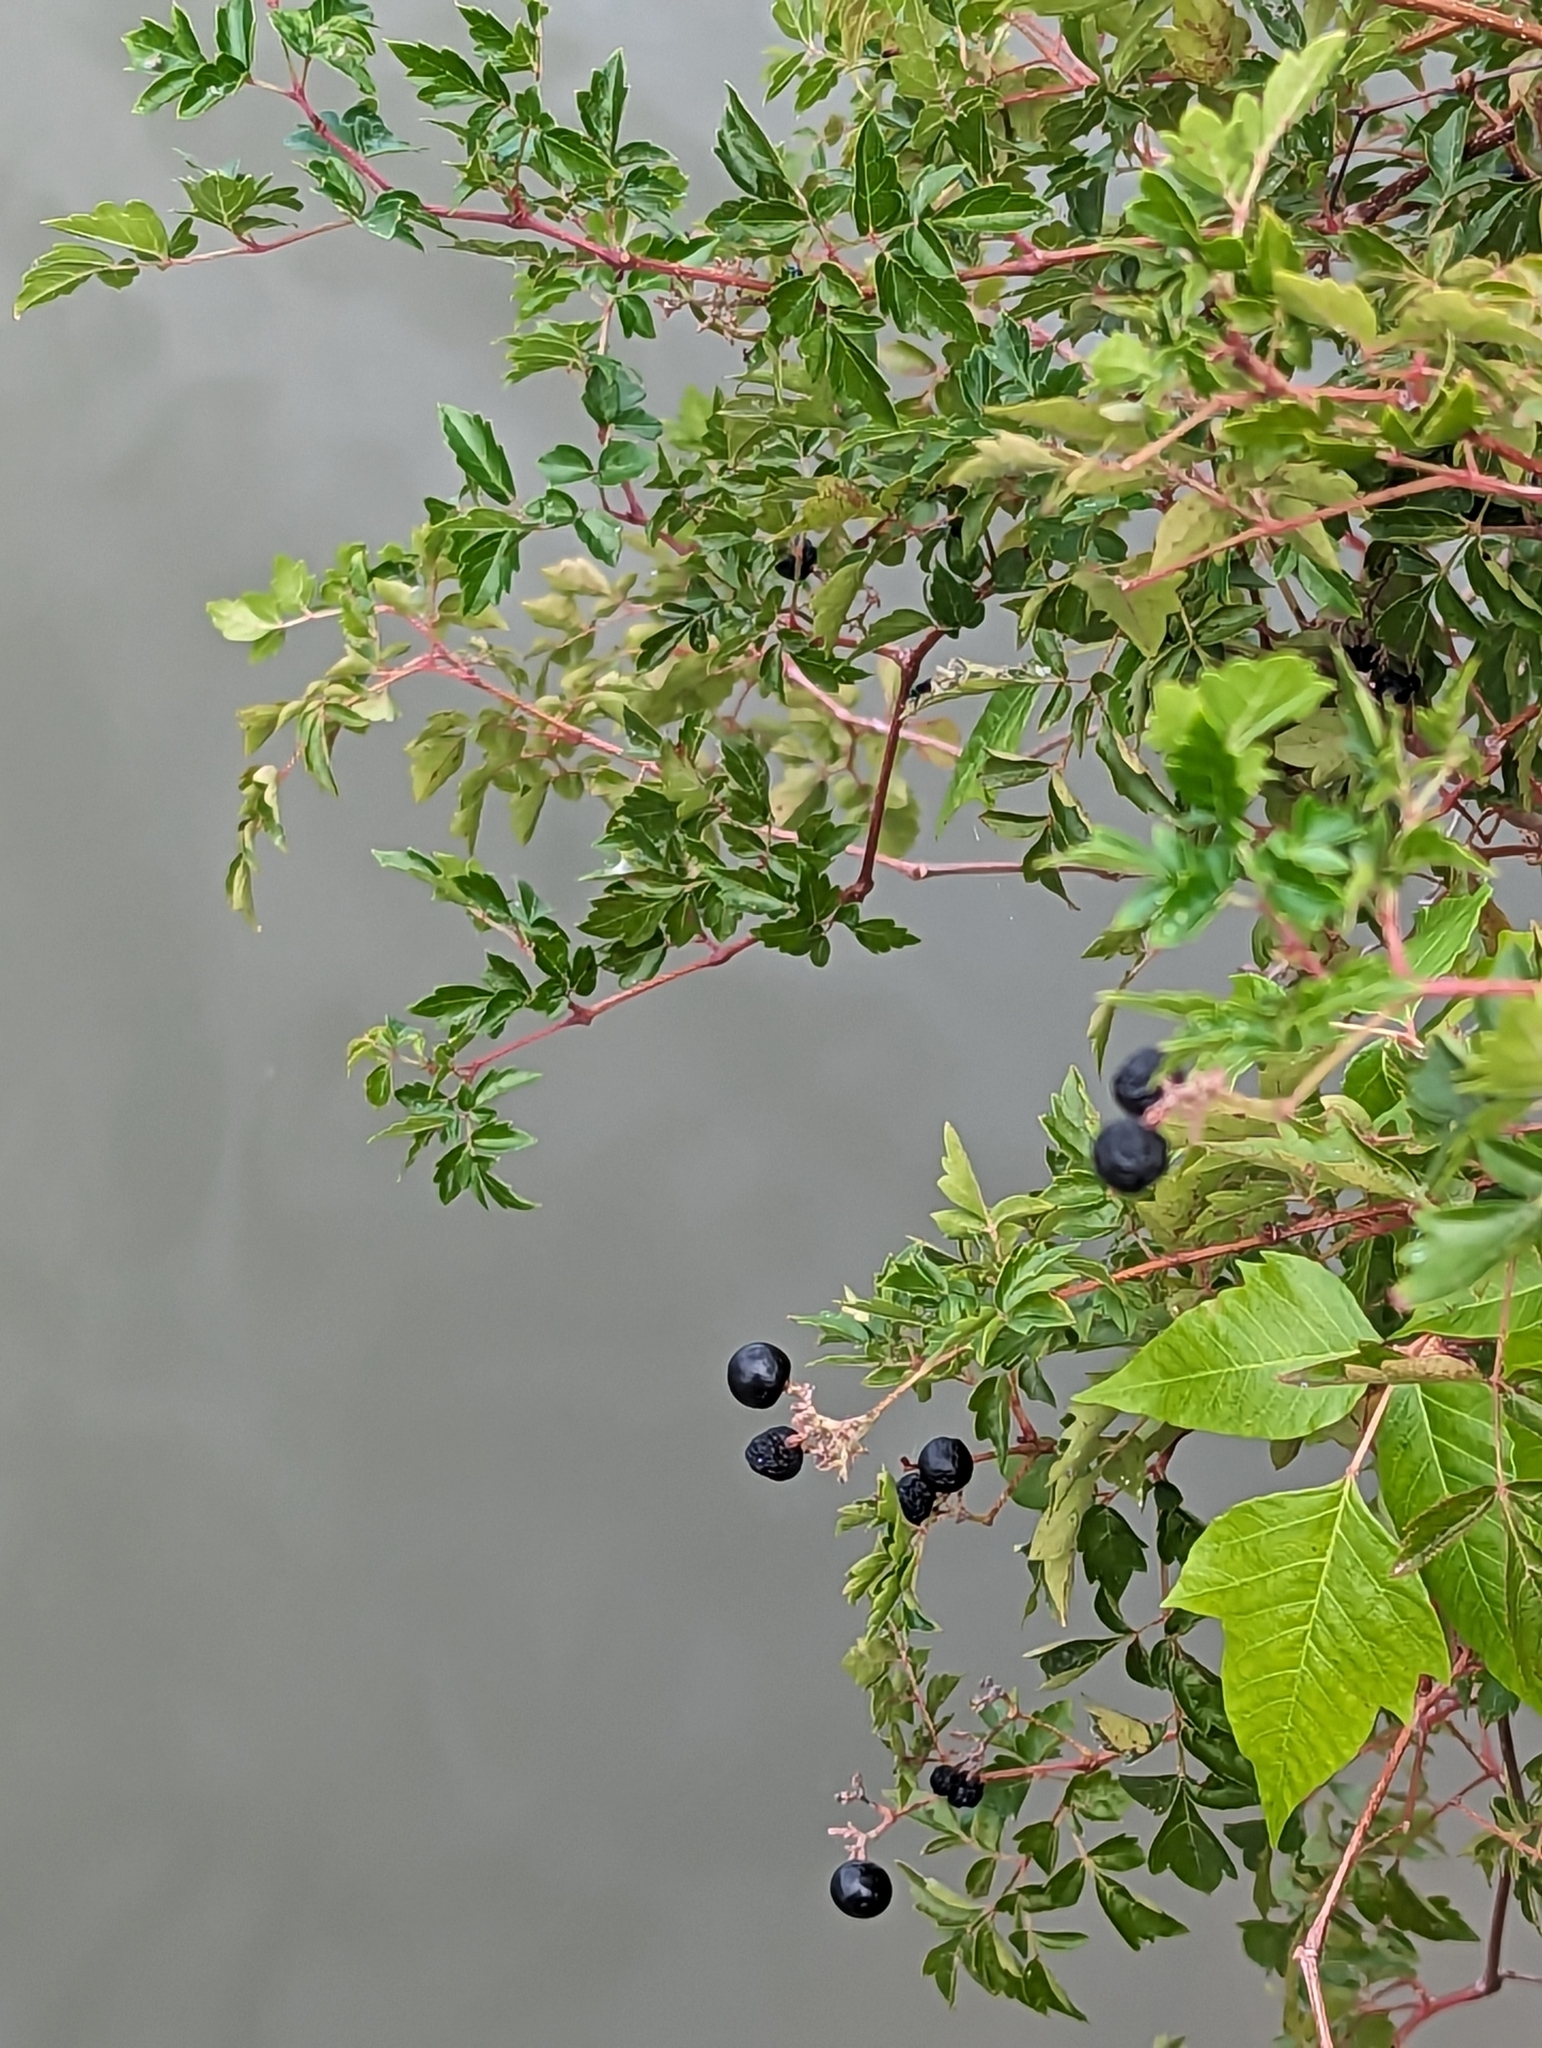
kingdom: Plantae
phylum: Tracheophyta
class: Magnoliopsida
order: Vitales
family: Vitaceae
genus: Nekemias
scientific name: Nekemias arborea
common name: Peppervine
